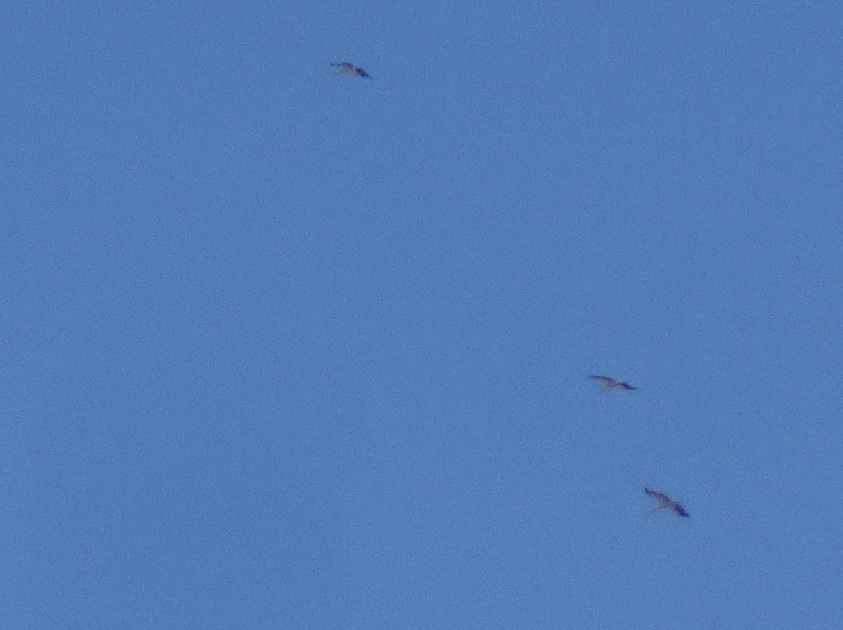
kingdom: Animalia
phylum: Chordata
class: Aves
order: Ciconiiformes
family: Ciconiidae
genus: Ciconia
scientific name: Ciconia ciconia
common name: White stork
